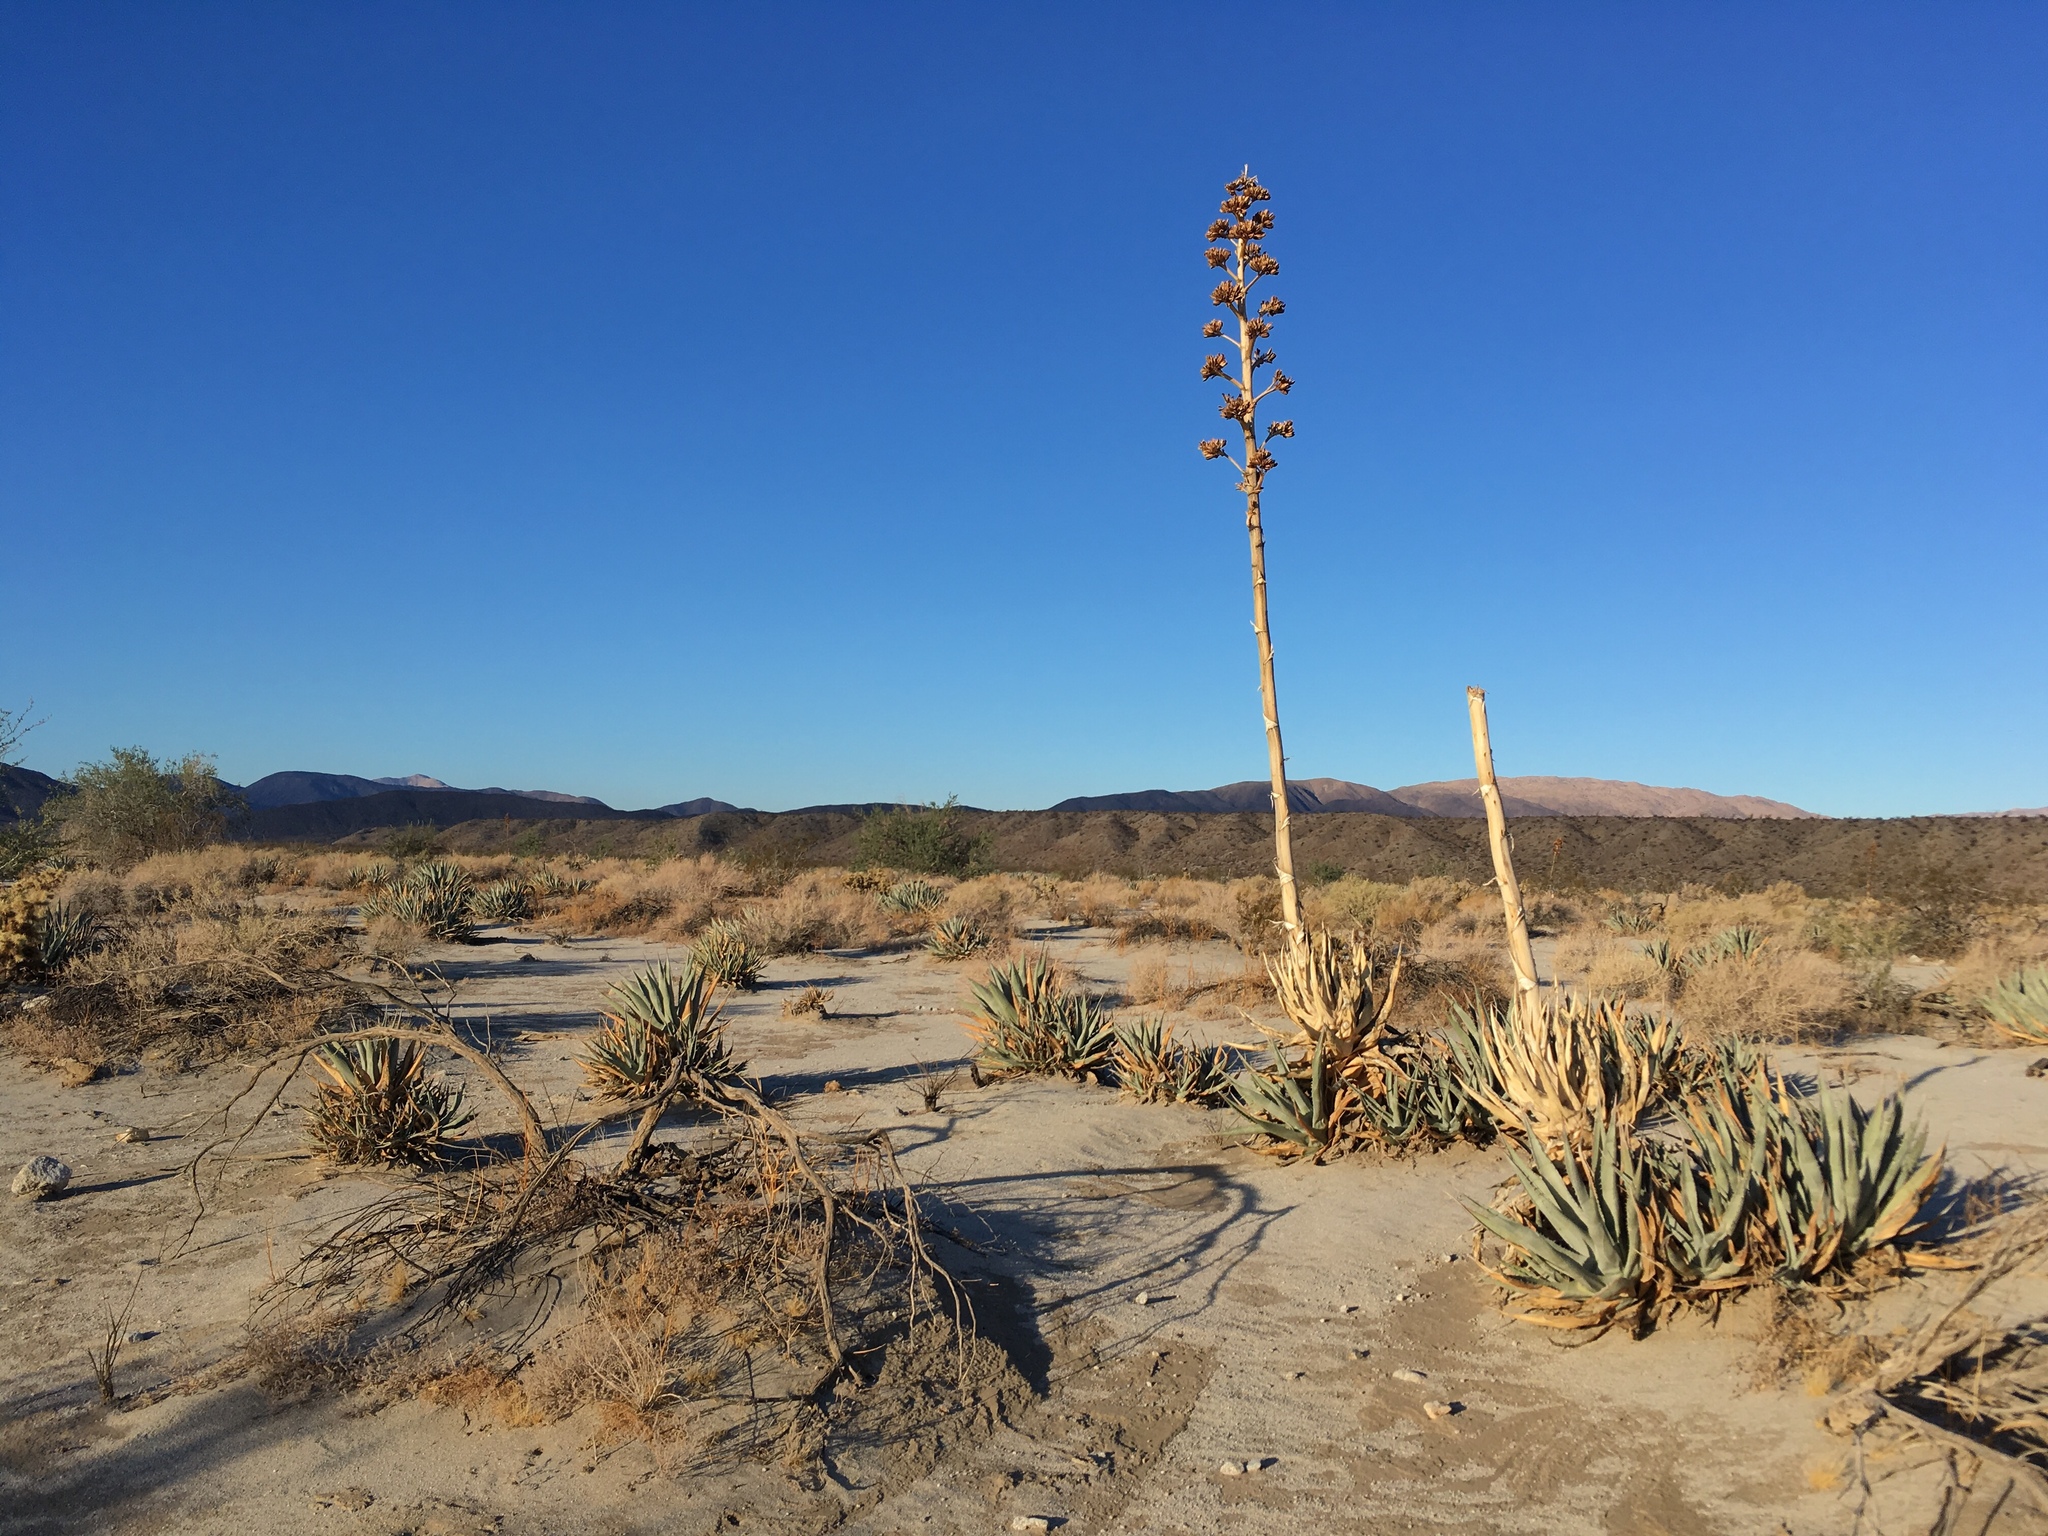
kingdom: Plantae
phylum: Tracheophyta
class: Liliopsida
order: Asparagales
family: Asparagaceae
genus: Agave
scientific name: Agave deserti
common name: Desert agave
